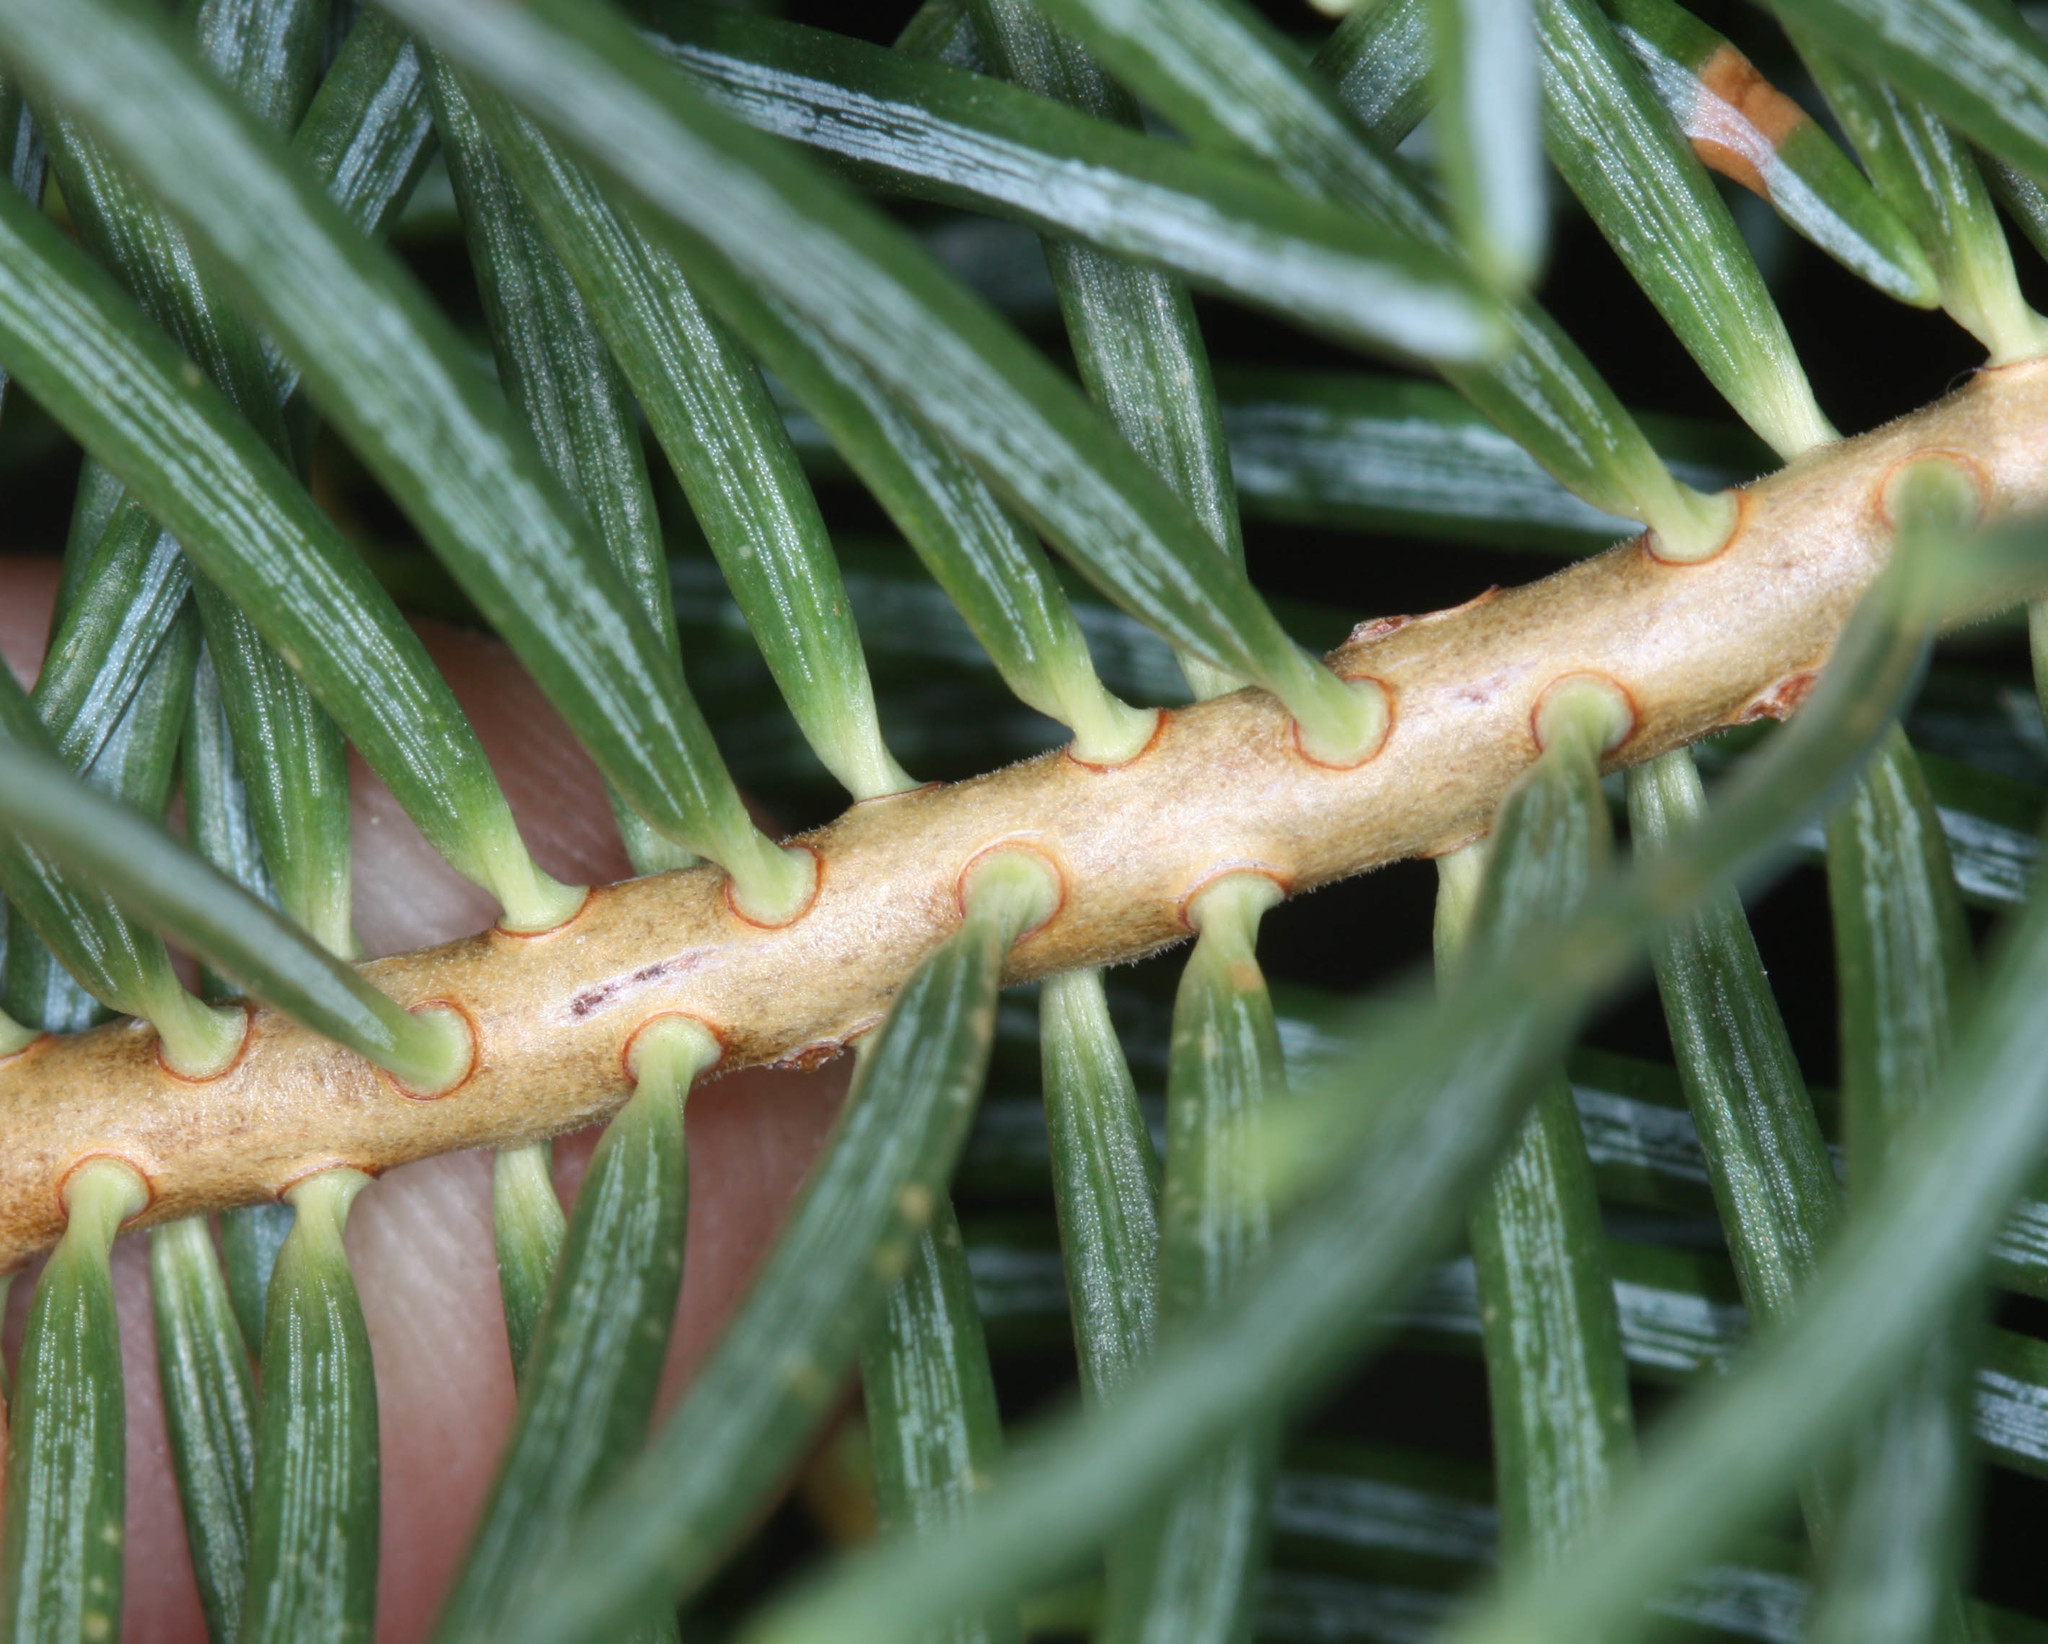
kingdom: Plantae
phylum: Tracheophyta
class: Pinopsida
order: Pinales
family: Pinaceae
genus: Abies
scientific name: Abies concolor
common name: Colorado fir
